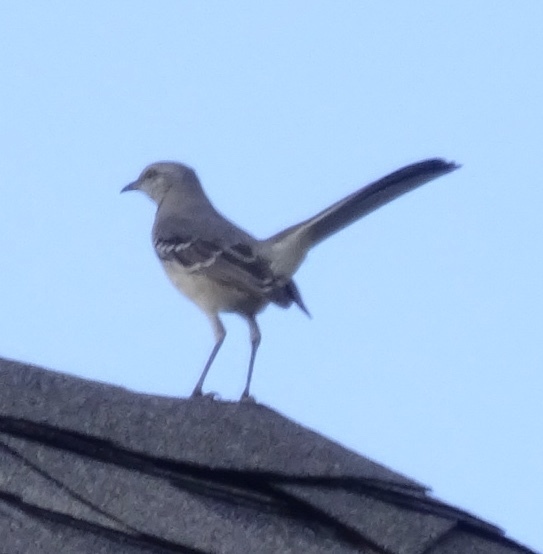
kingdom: Animalia
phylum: Chordata
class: Aves
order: Passeriformes
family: Mimidae
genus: Mimus
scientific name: Mimus polyglottos
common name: Northern mockingbird
